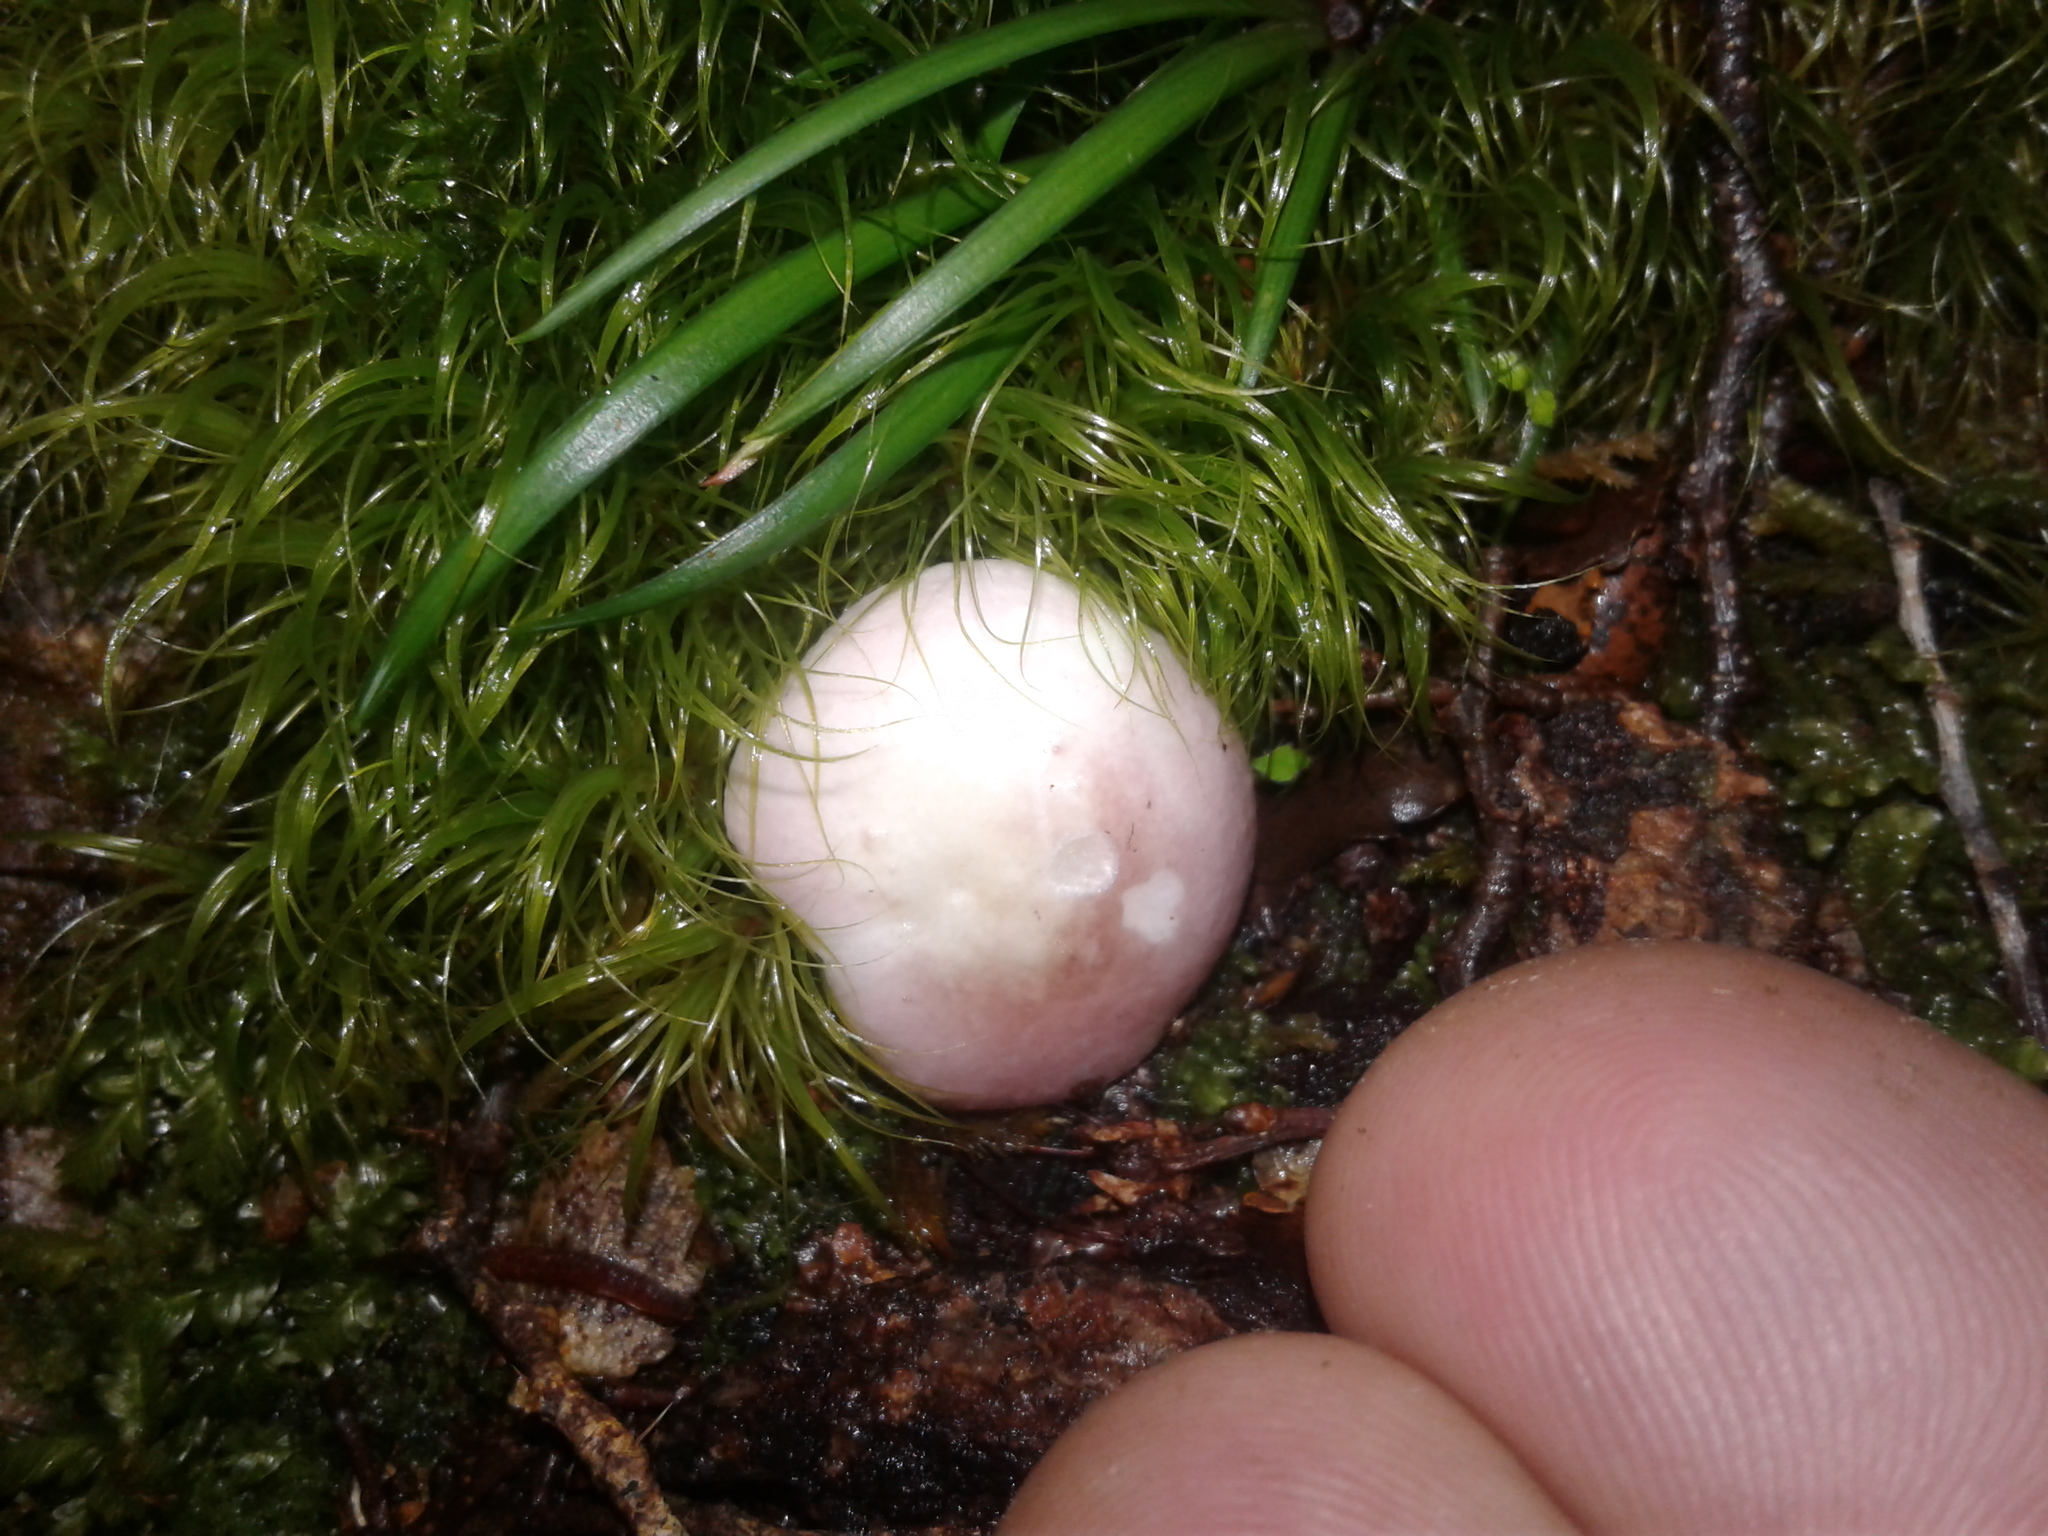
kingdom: Fungi
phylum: Basidiomycota
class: Agaricomycetes
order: Russulales
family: Russulaceae
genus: Russula
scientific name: Russula roseopileata
